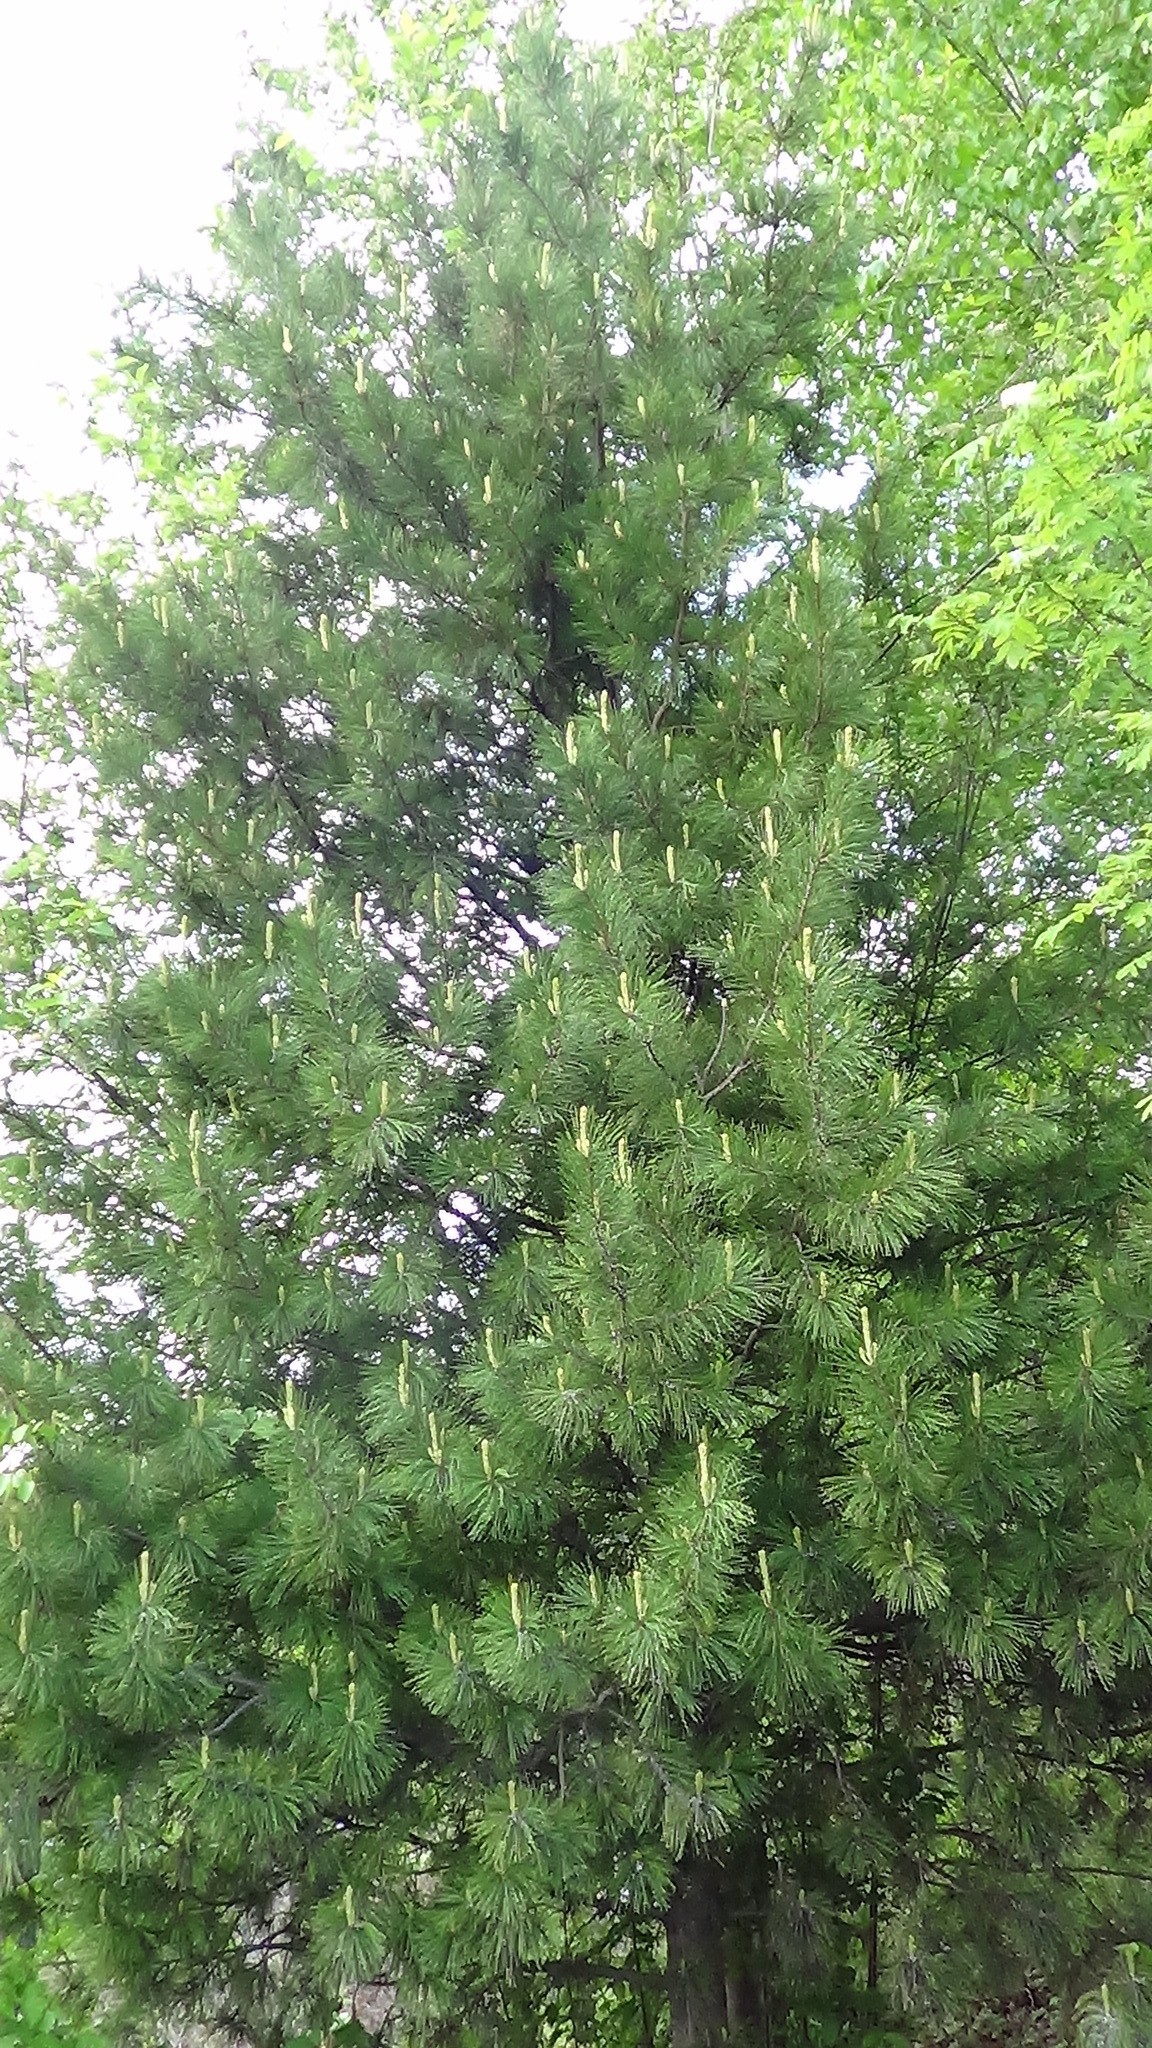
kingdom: Plantae
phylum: Tracheophyta
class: Pinopsida
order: Pinales
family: Pinaceae
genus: Pinus
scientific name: Pinus sibirica
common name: Siberian pine
